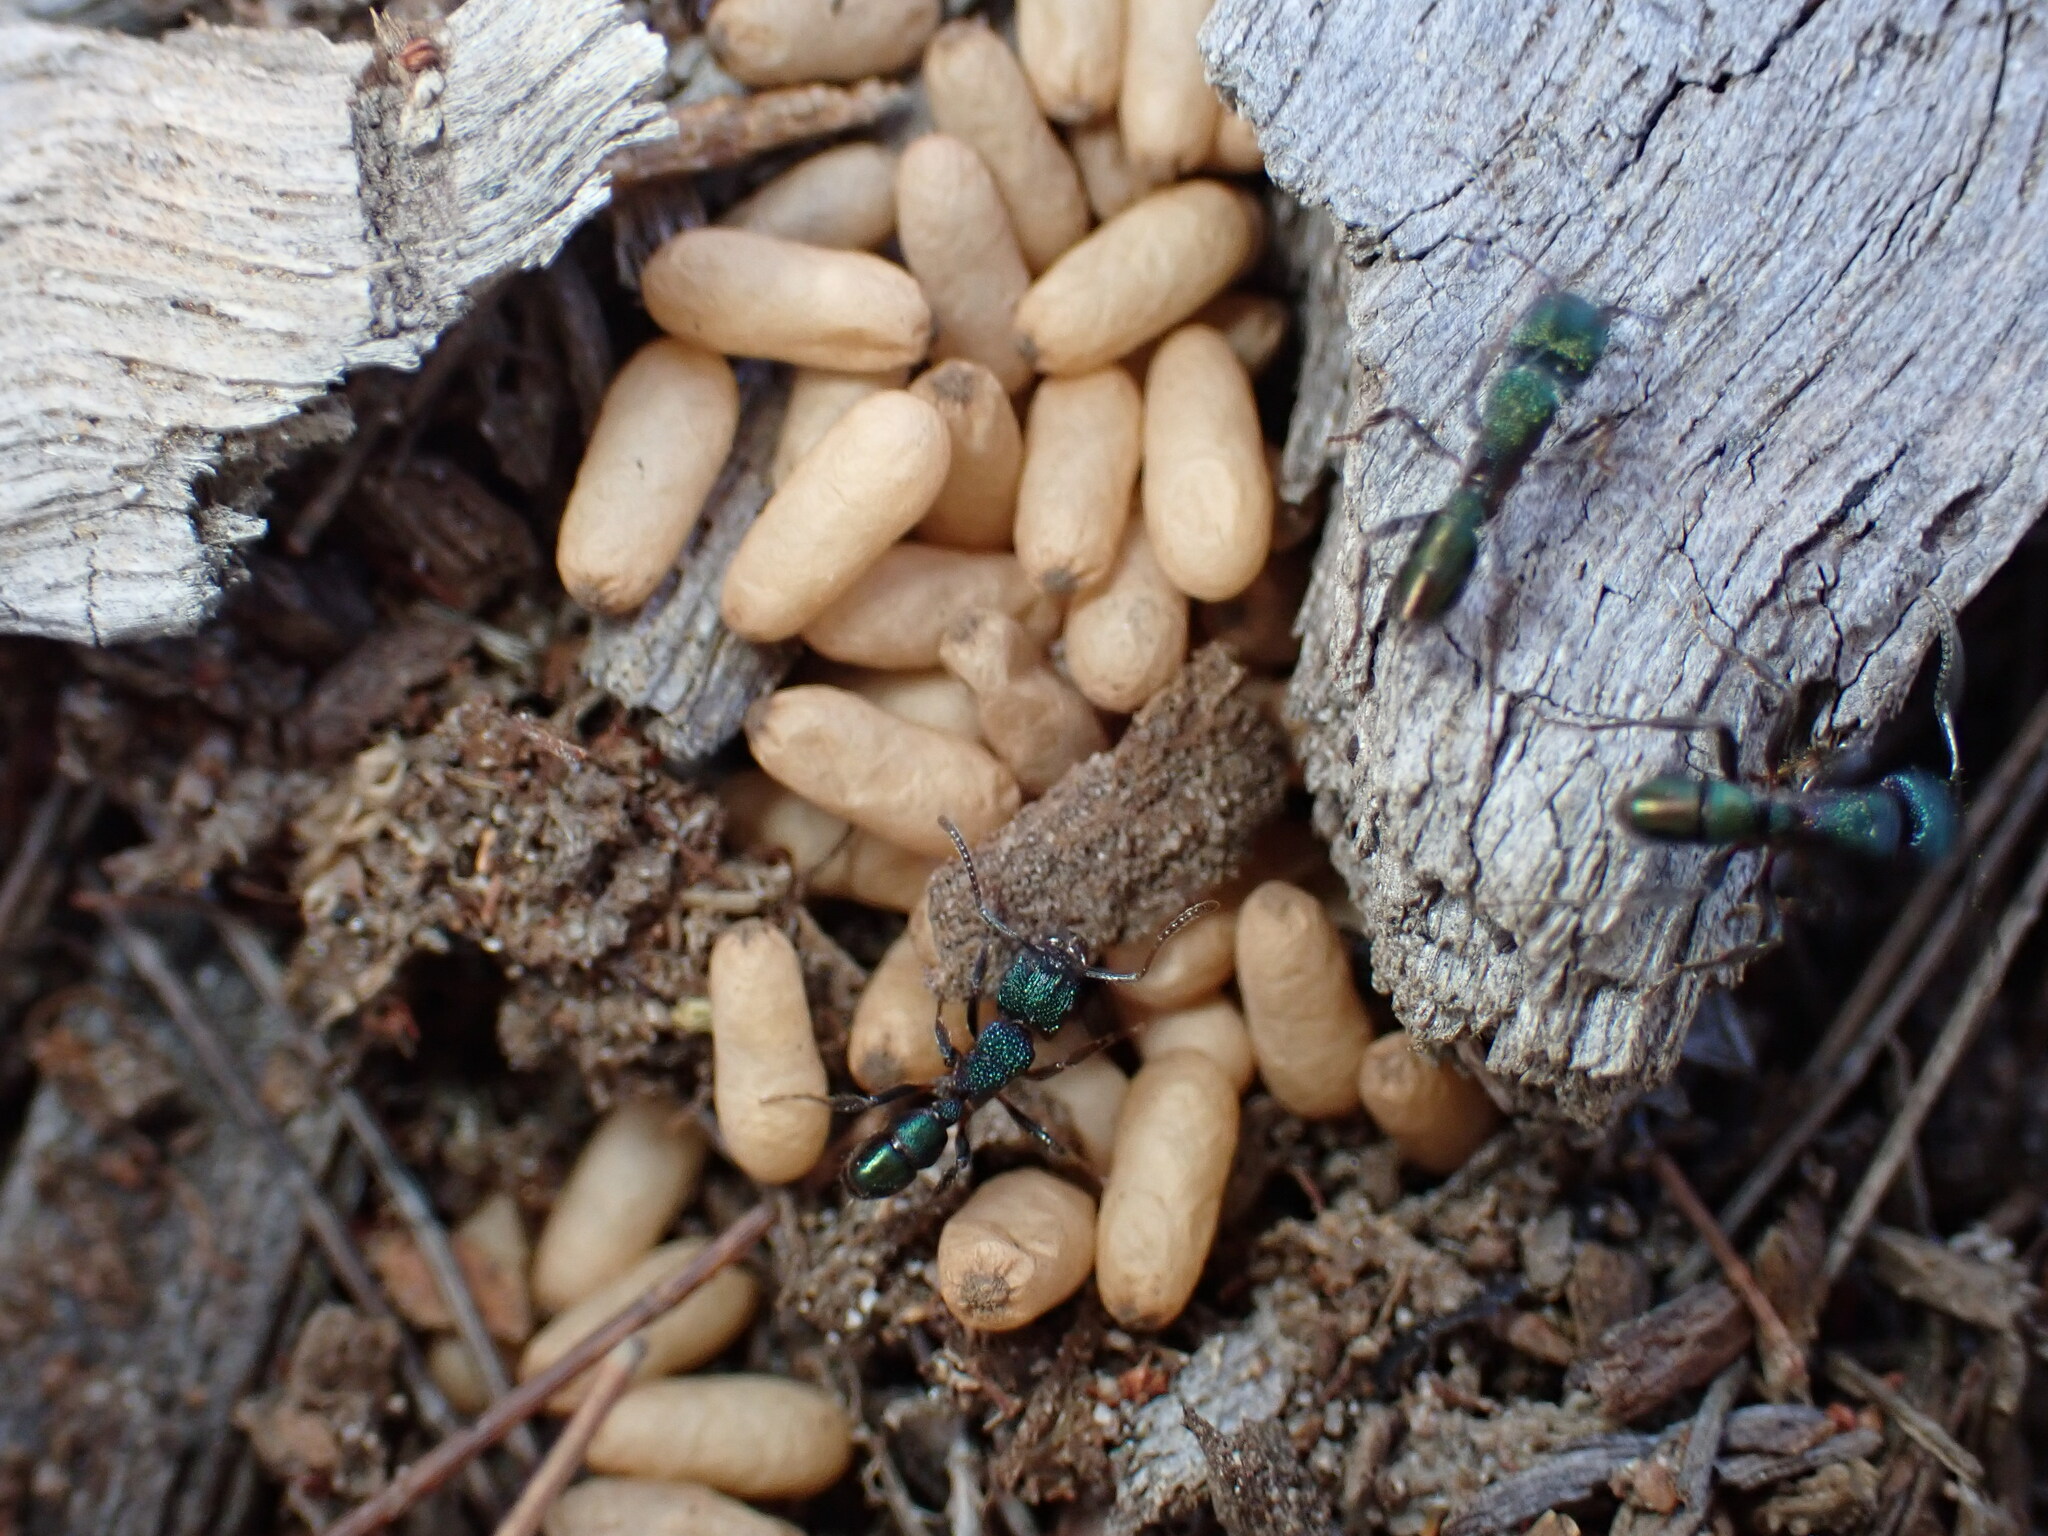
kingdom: Animalia
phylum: Arthropoda
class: Insecta
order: Hymenoptera
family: Formicidae
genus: Rhytidoponera
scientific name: Rhytidoponera metallica
